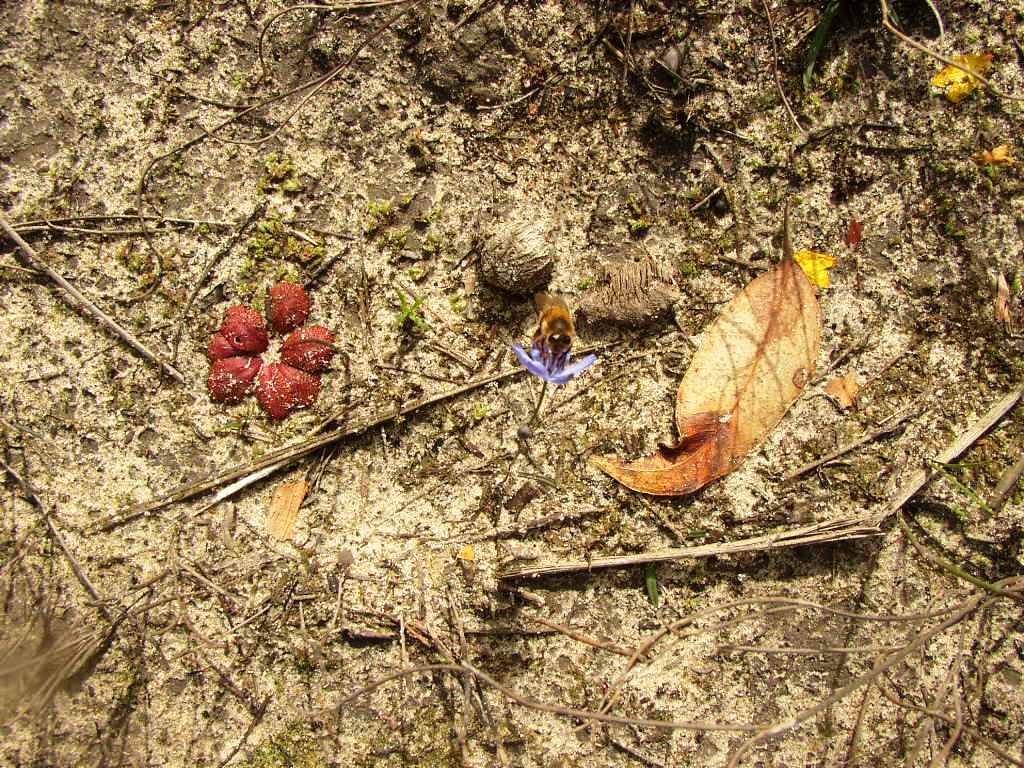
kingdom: Animalia
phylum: Arthropoda
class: Insecta
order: Hymenoptera
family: Apidae
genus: Apis
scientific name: Apis mellifera
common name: Honey bee
